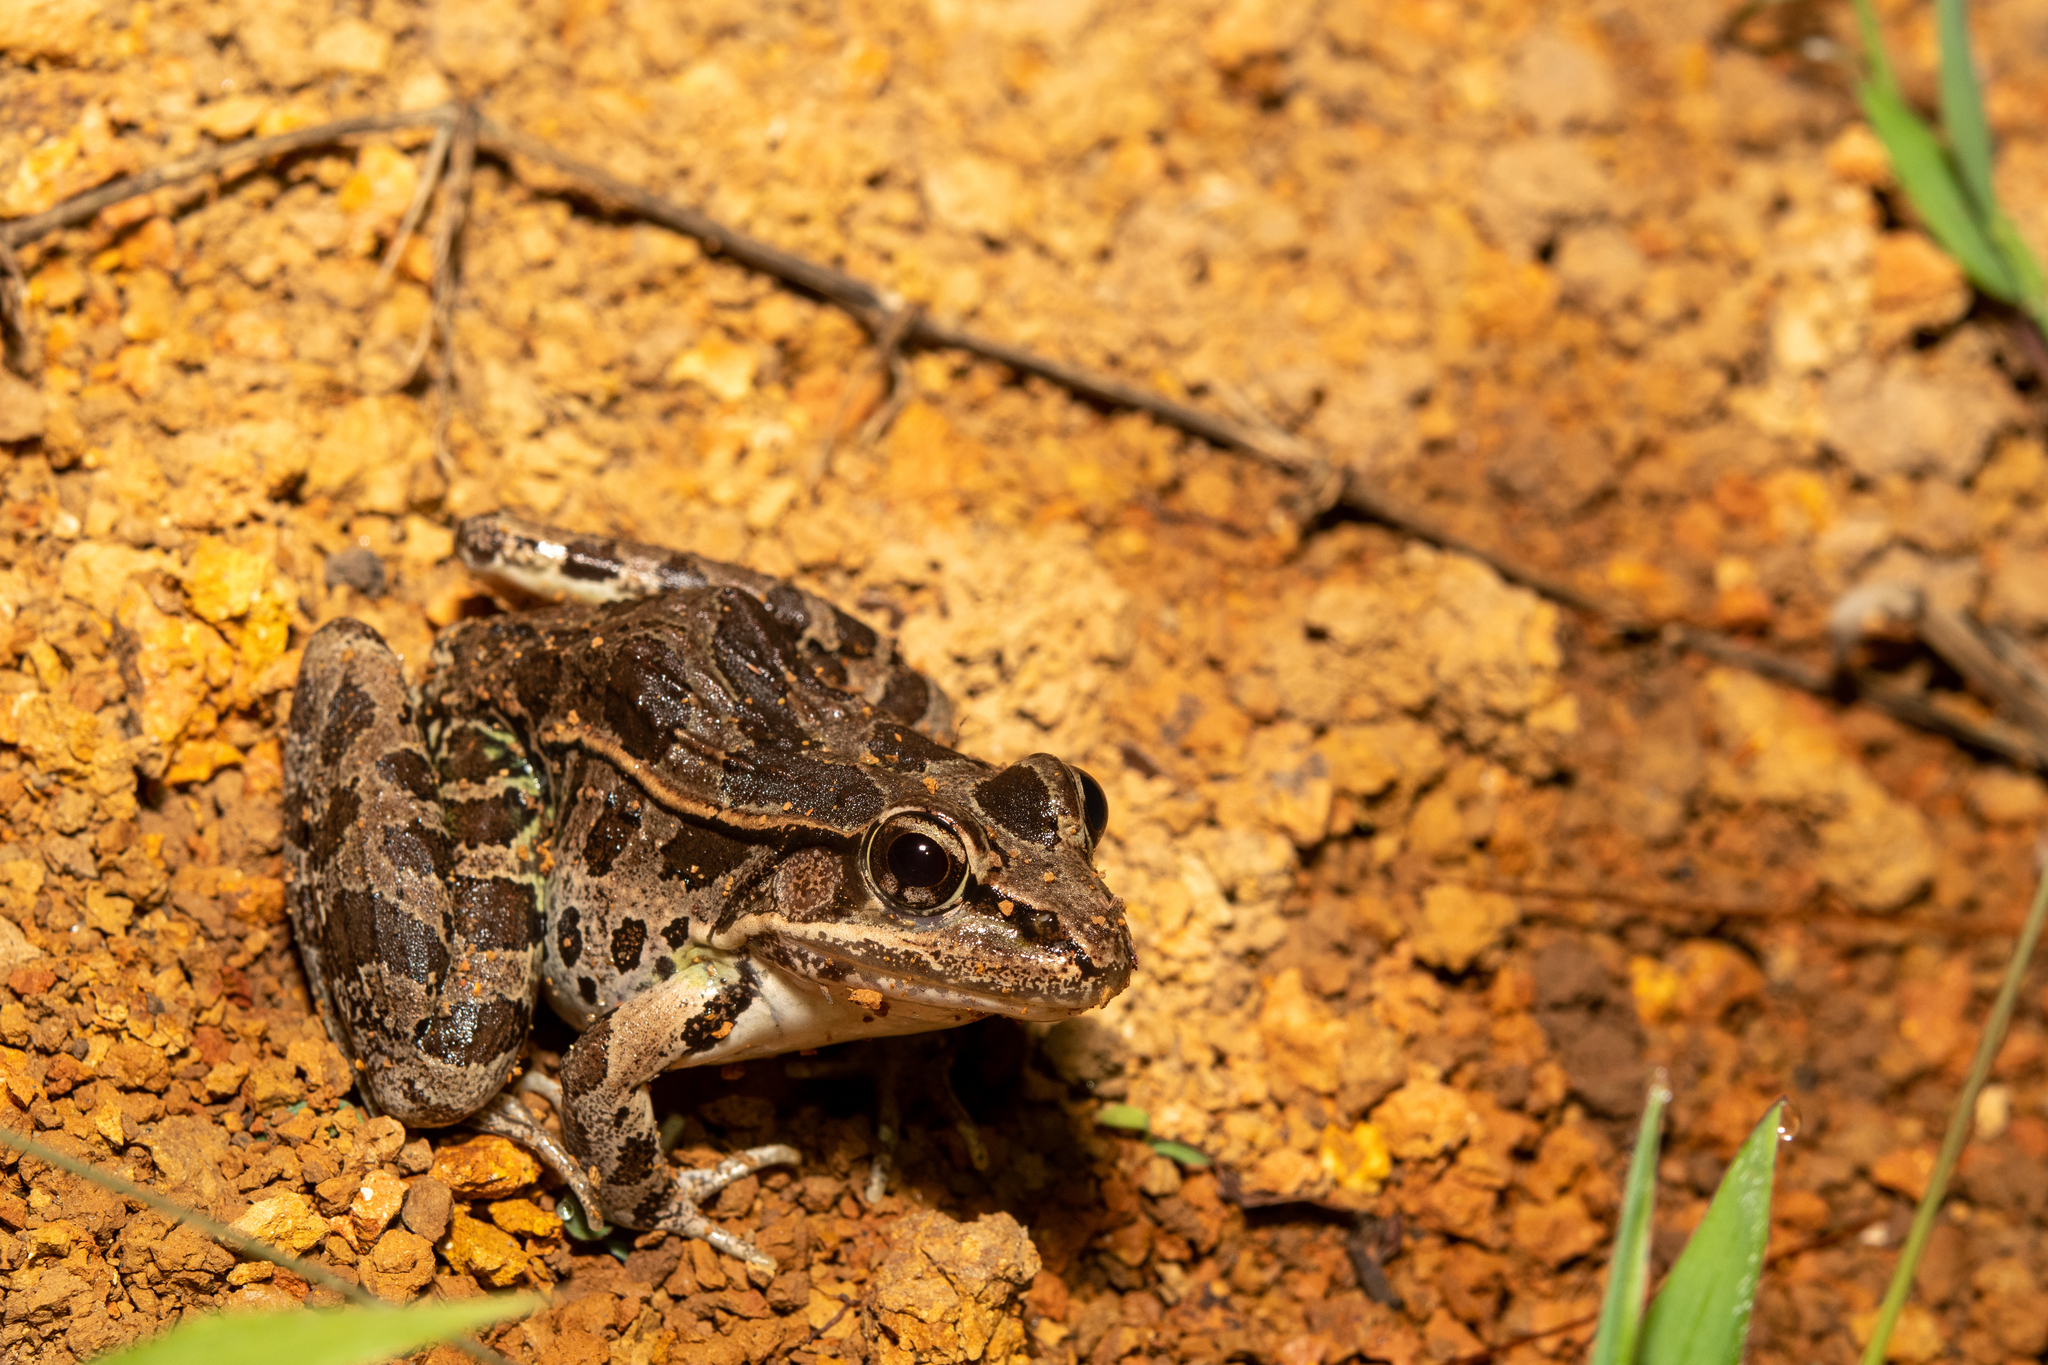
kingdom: Animalia
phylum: Chordata
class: Amphibia
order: Anura
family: Ranidae
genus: Lithobates
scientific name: Lithobates lenca
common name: Lenca leopard frog
